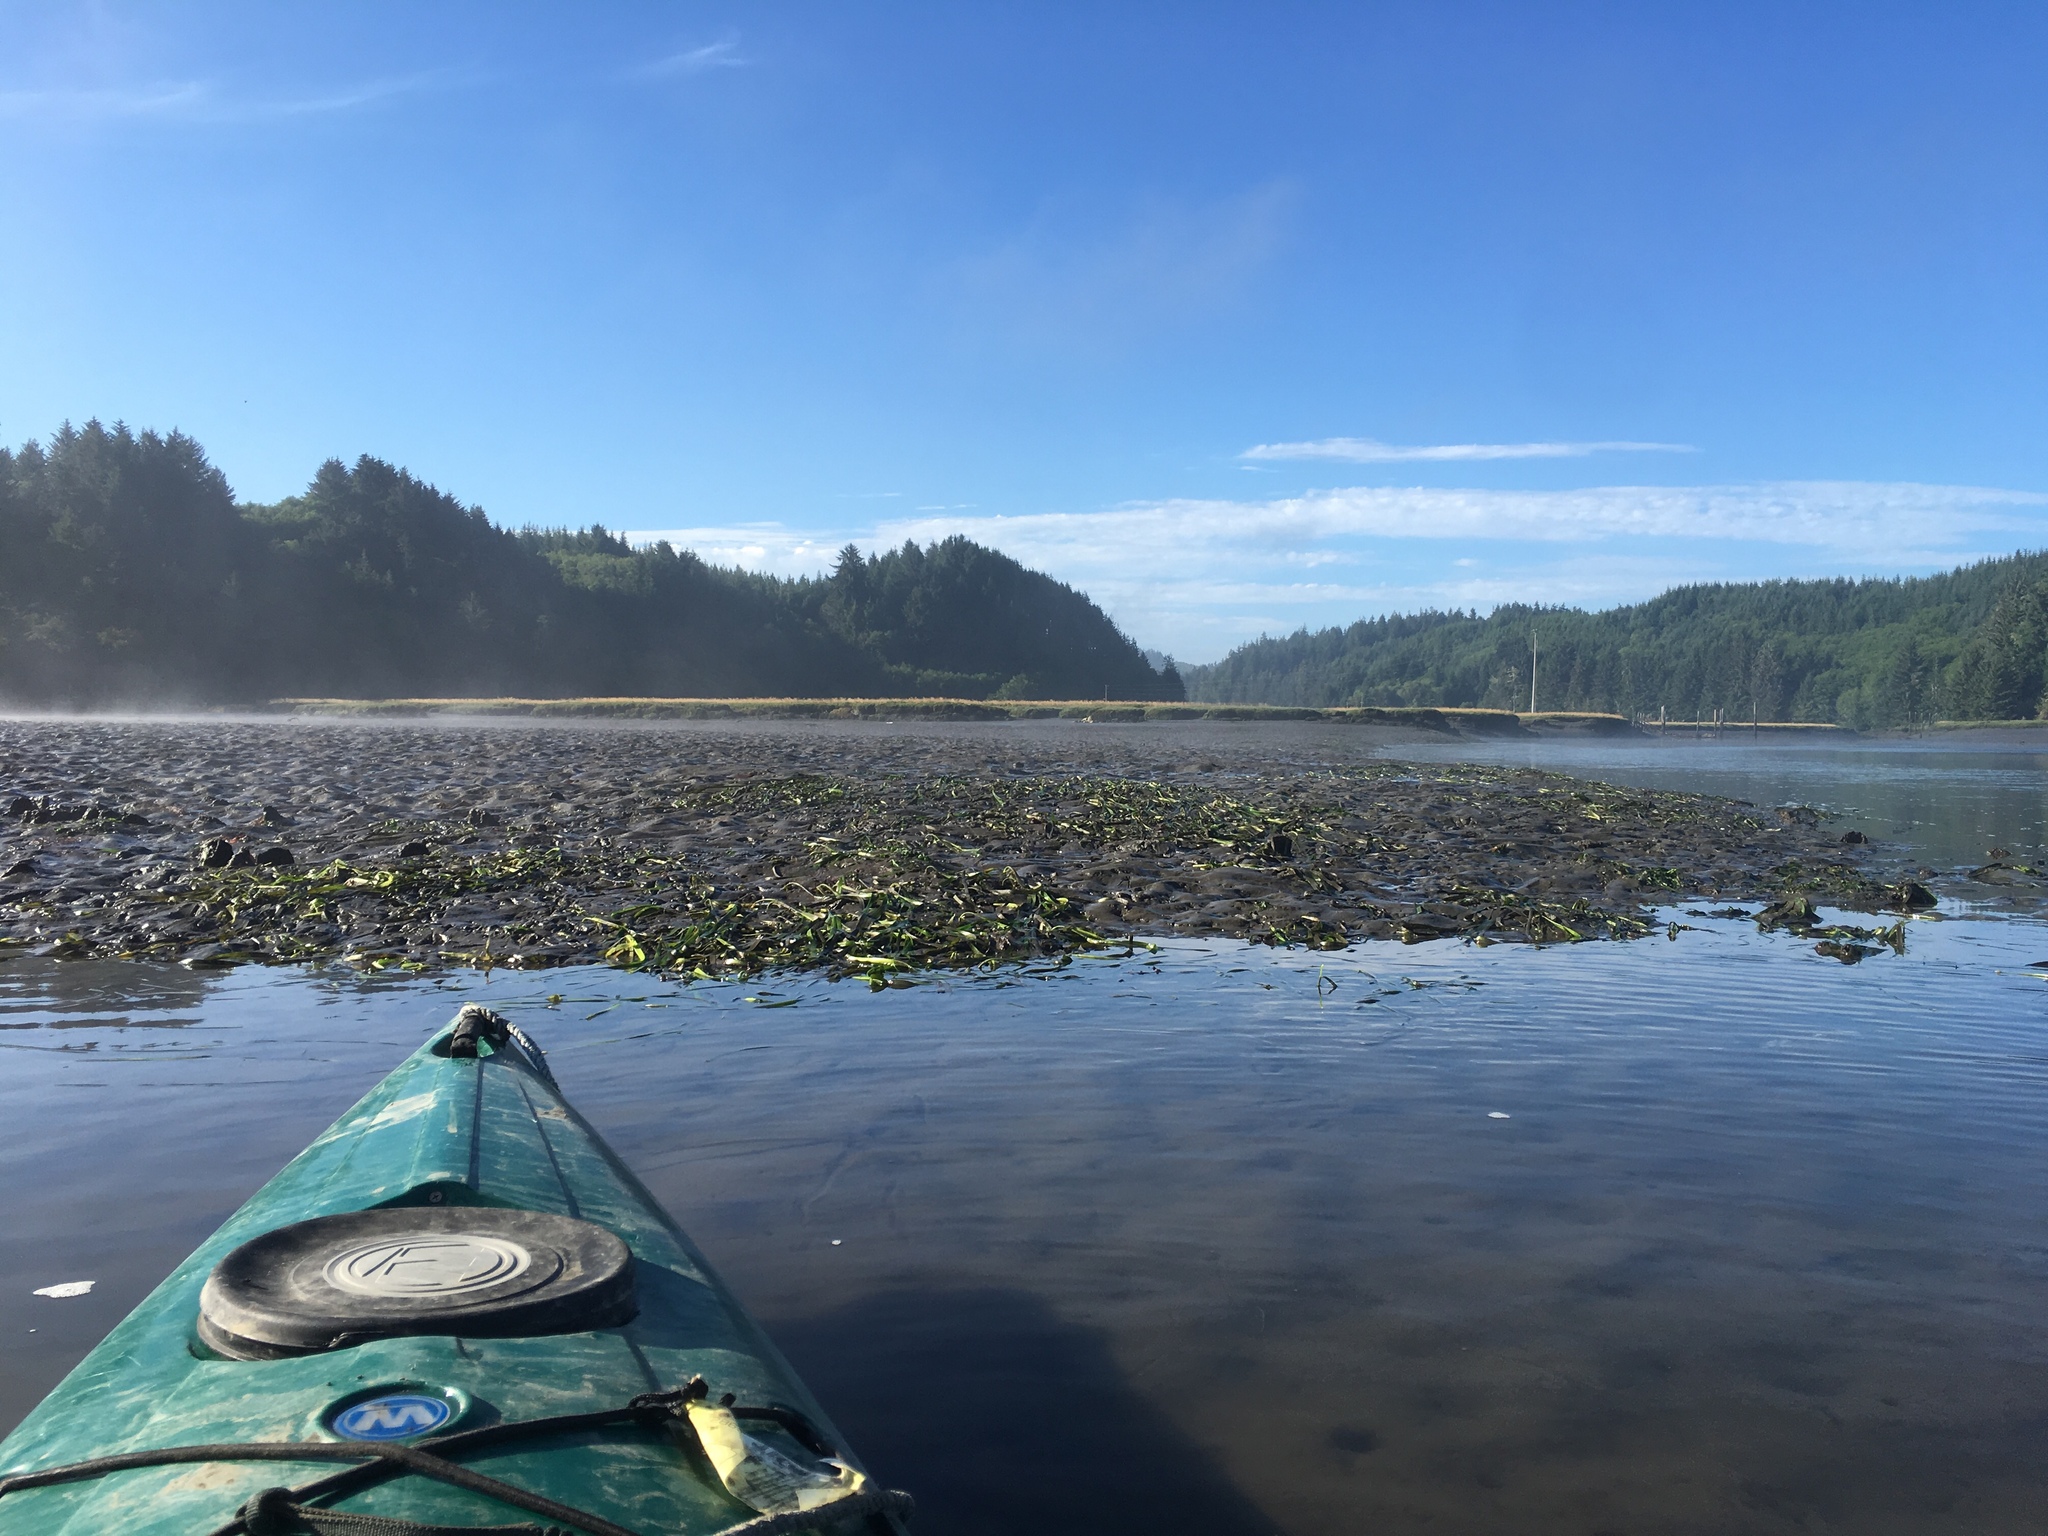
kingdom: Plantae
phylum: Tracheophyta
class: Liliopsida
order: Alismatales
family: Zosteraceae
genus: Zostera
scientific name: Zostera marina
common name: Eelgrass
